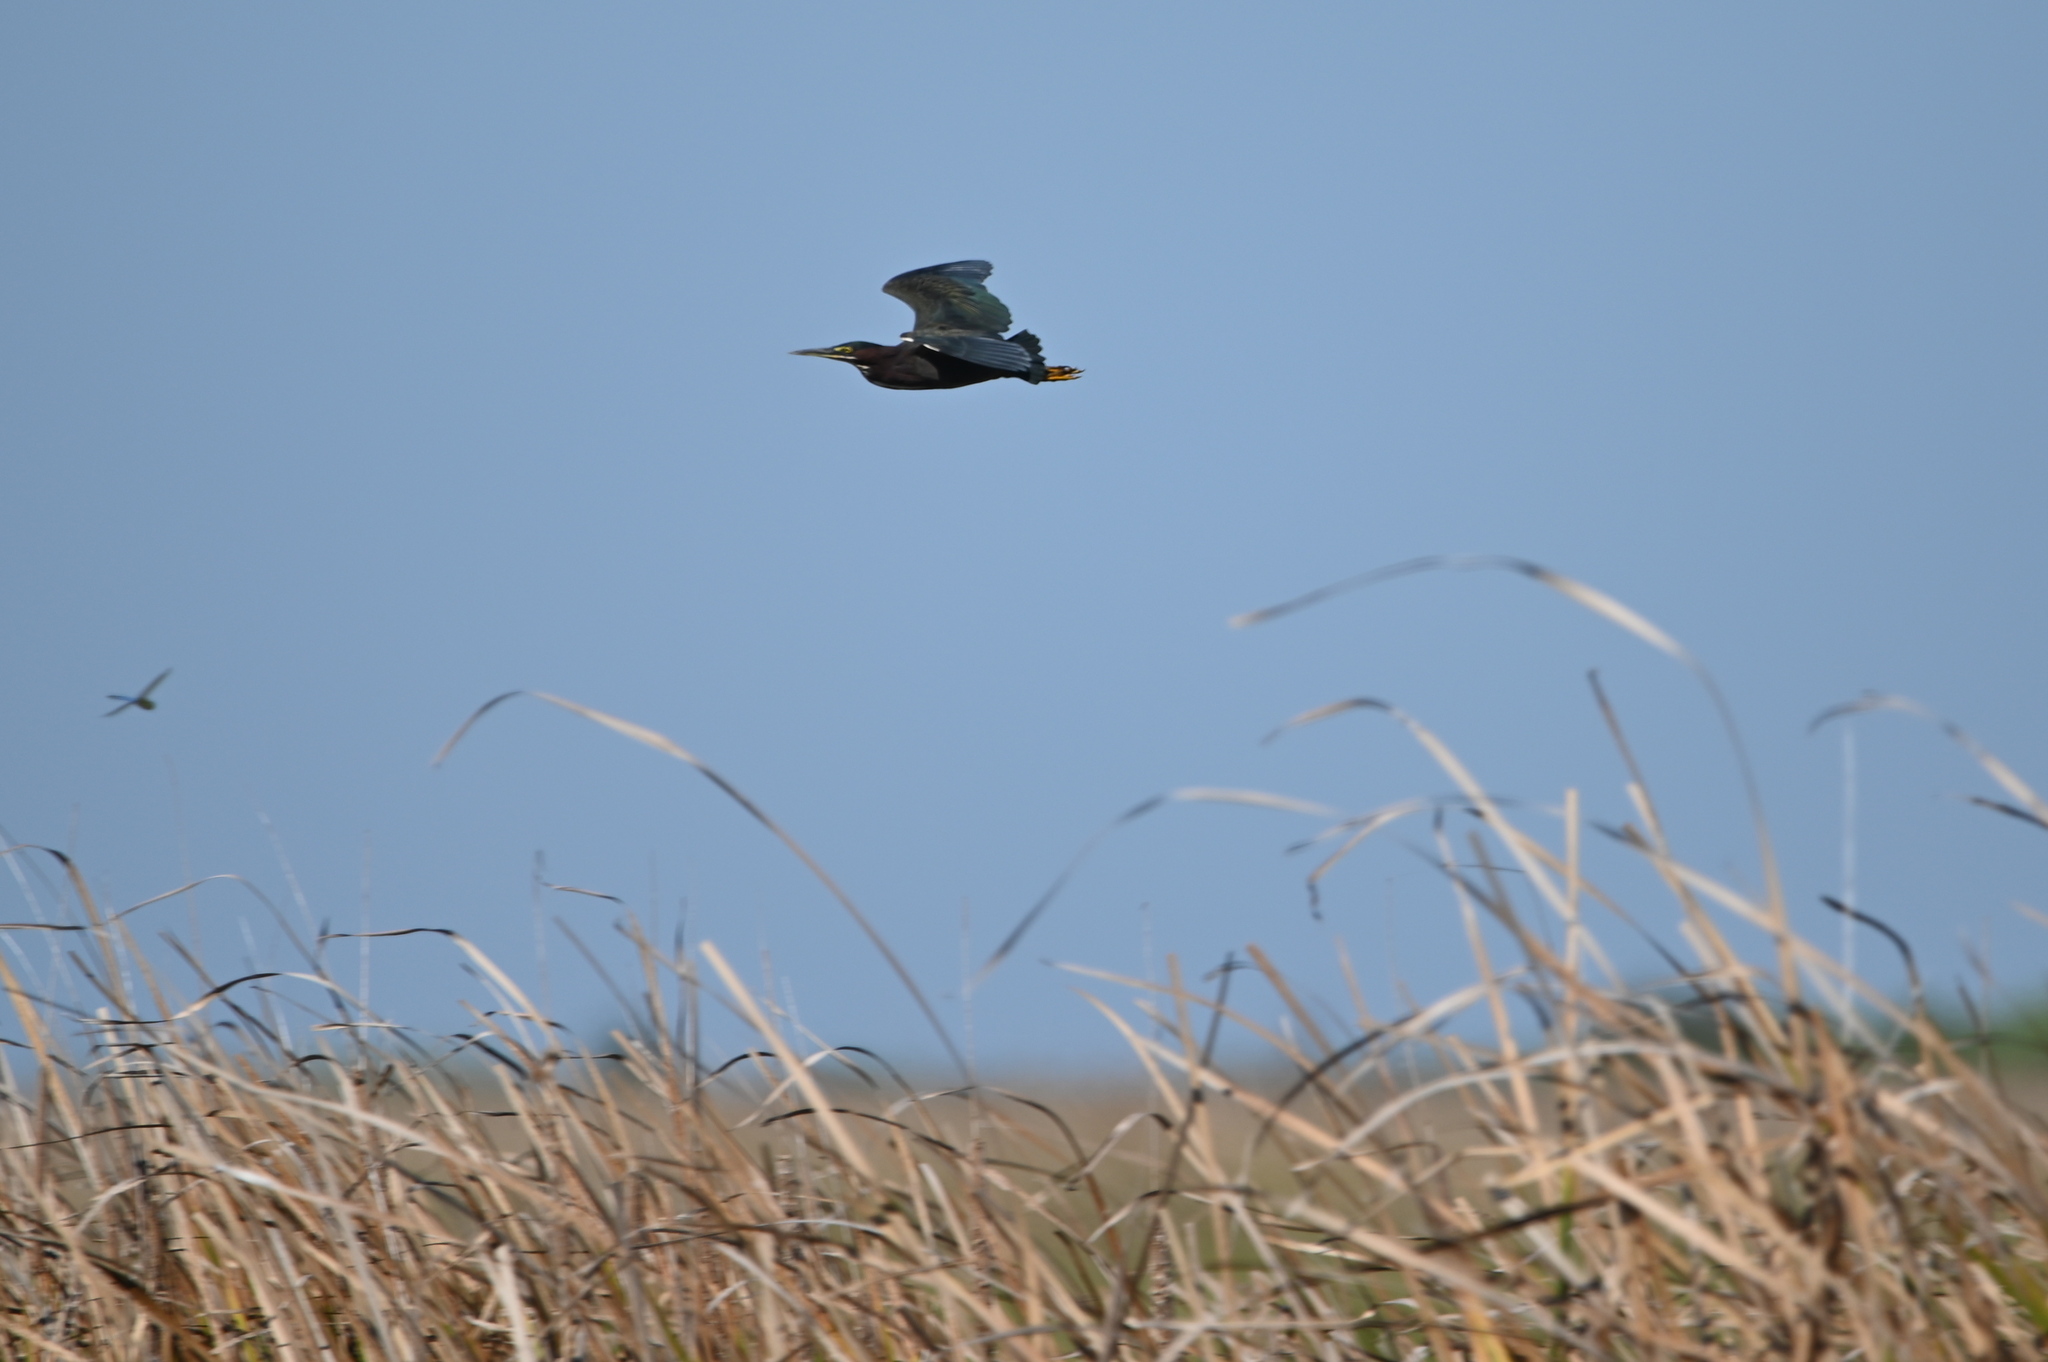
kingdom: Animalia
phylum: Chordata
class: Aves
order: Pelecaniformes
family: Ardeidae
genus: Butorides
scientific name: Butorides virescens
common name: Green heron
